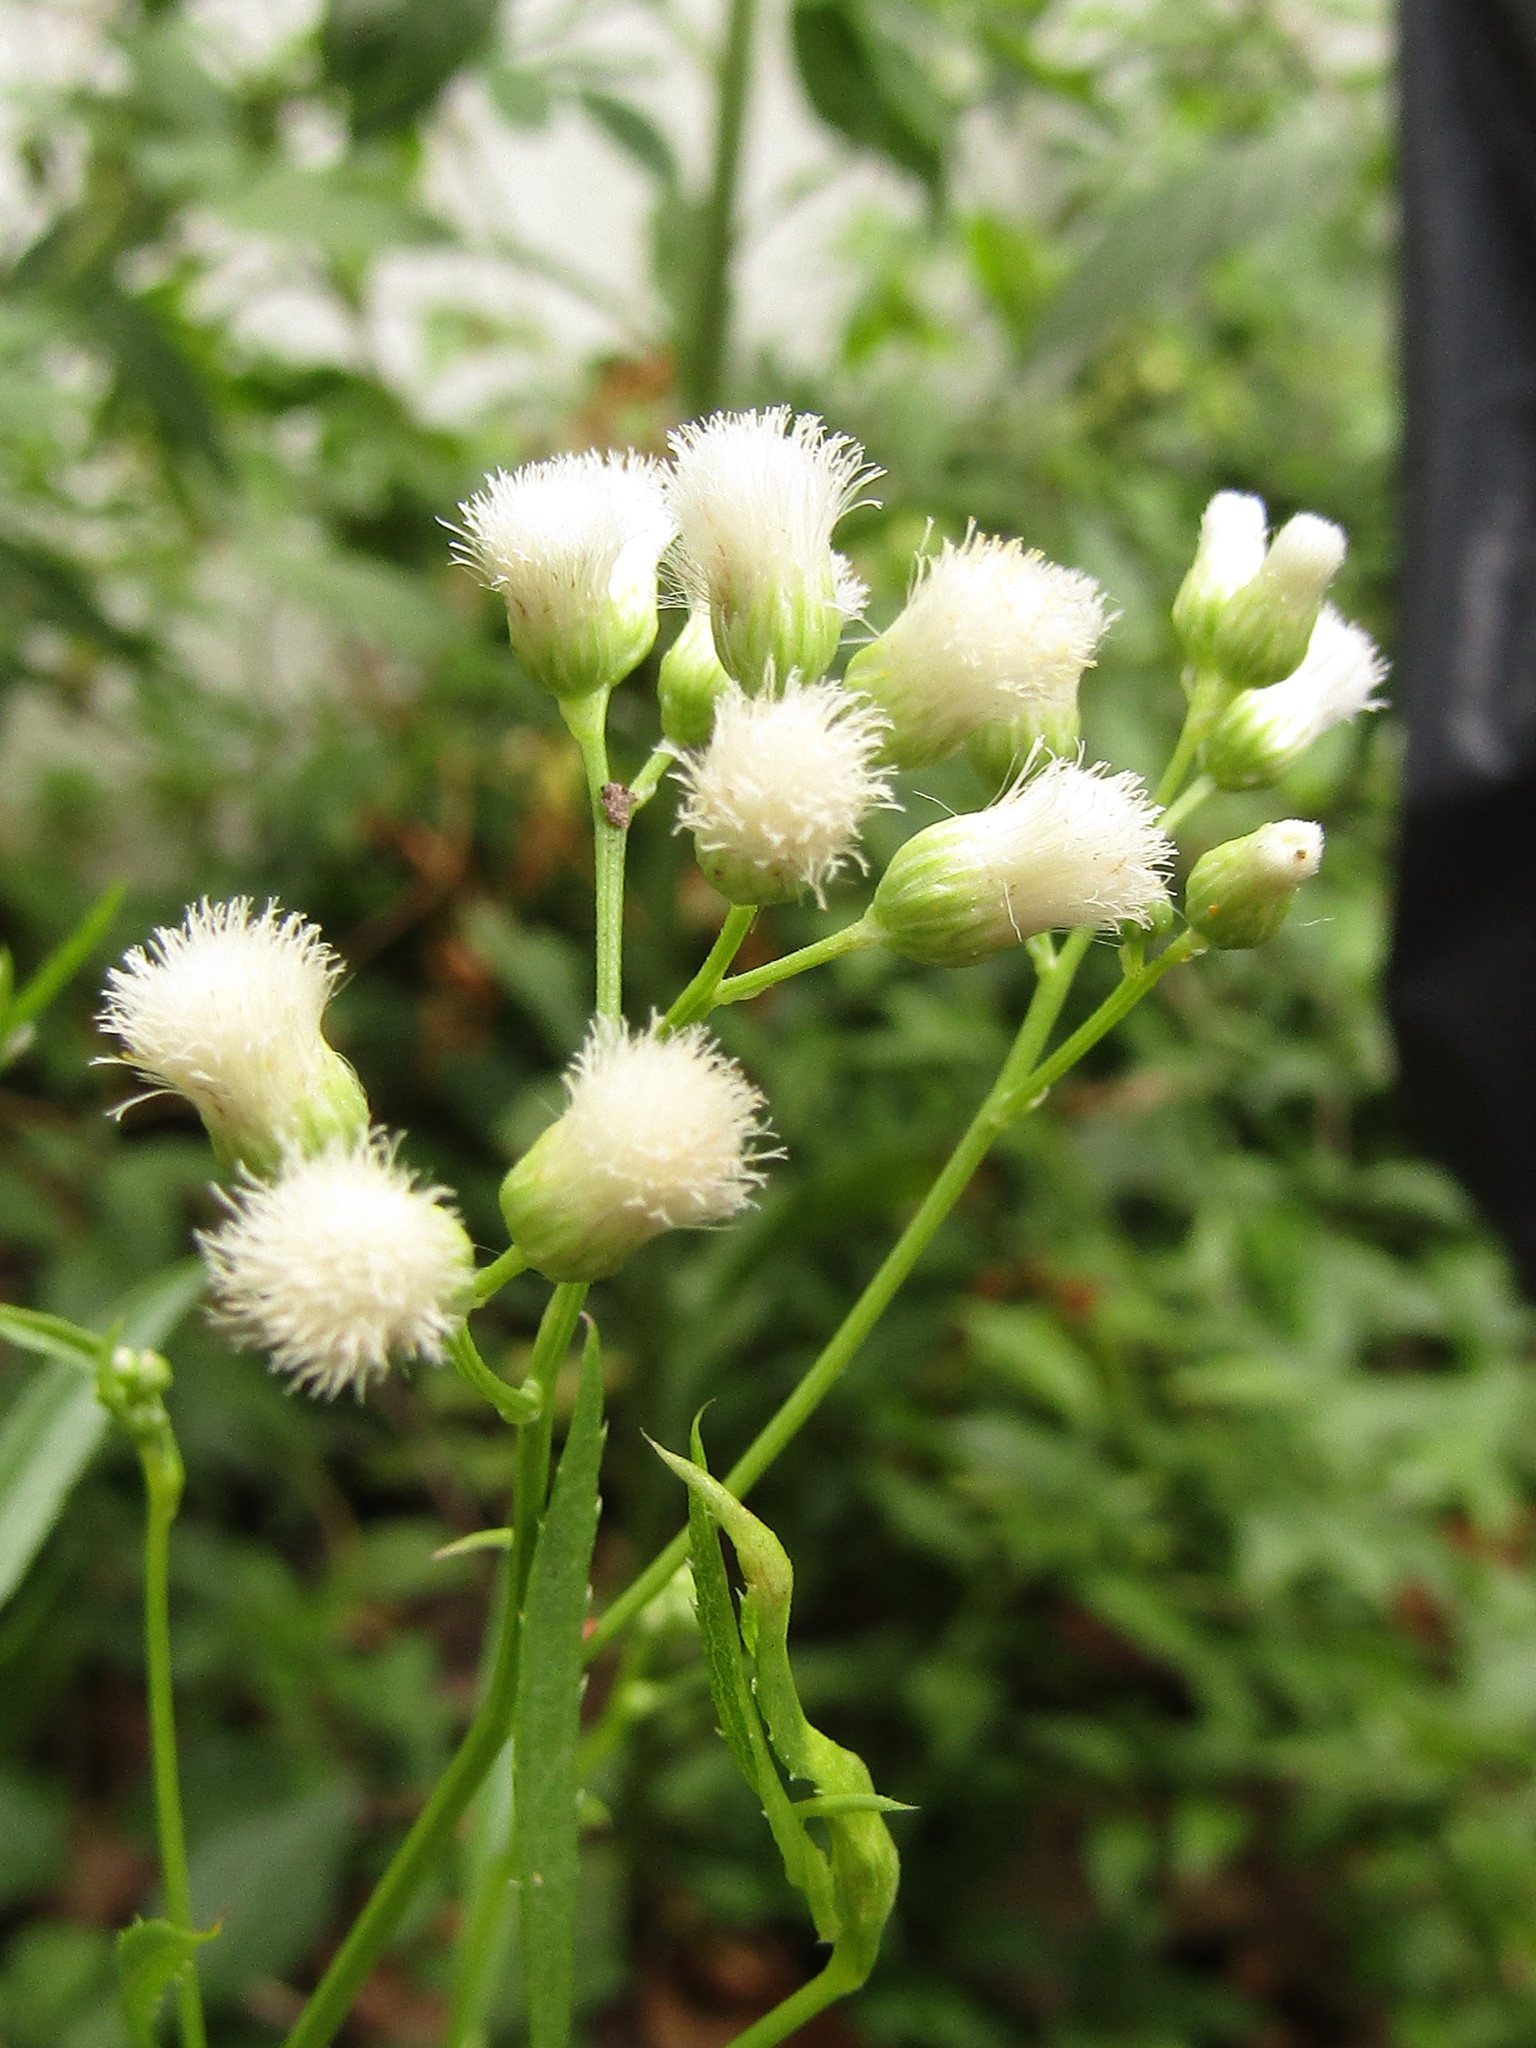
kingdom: Plantae
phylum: Tracheophyta
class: Magnoliopsida
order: Asterales
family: Asteraceae
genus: Baccharis
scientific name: Baccharis glutinosa
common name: Saltmarsh baccharis
